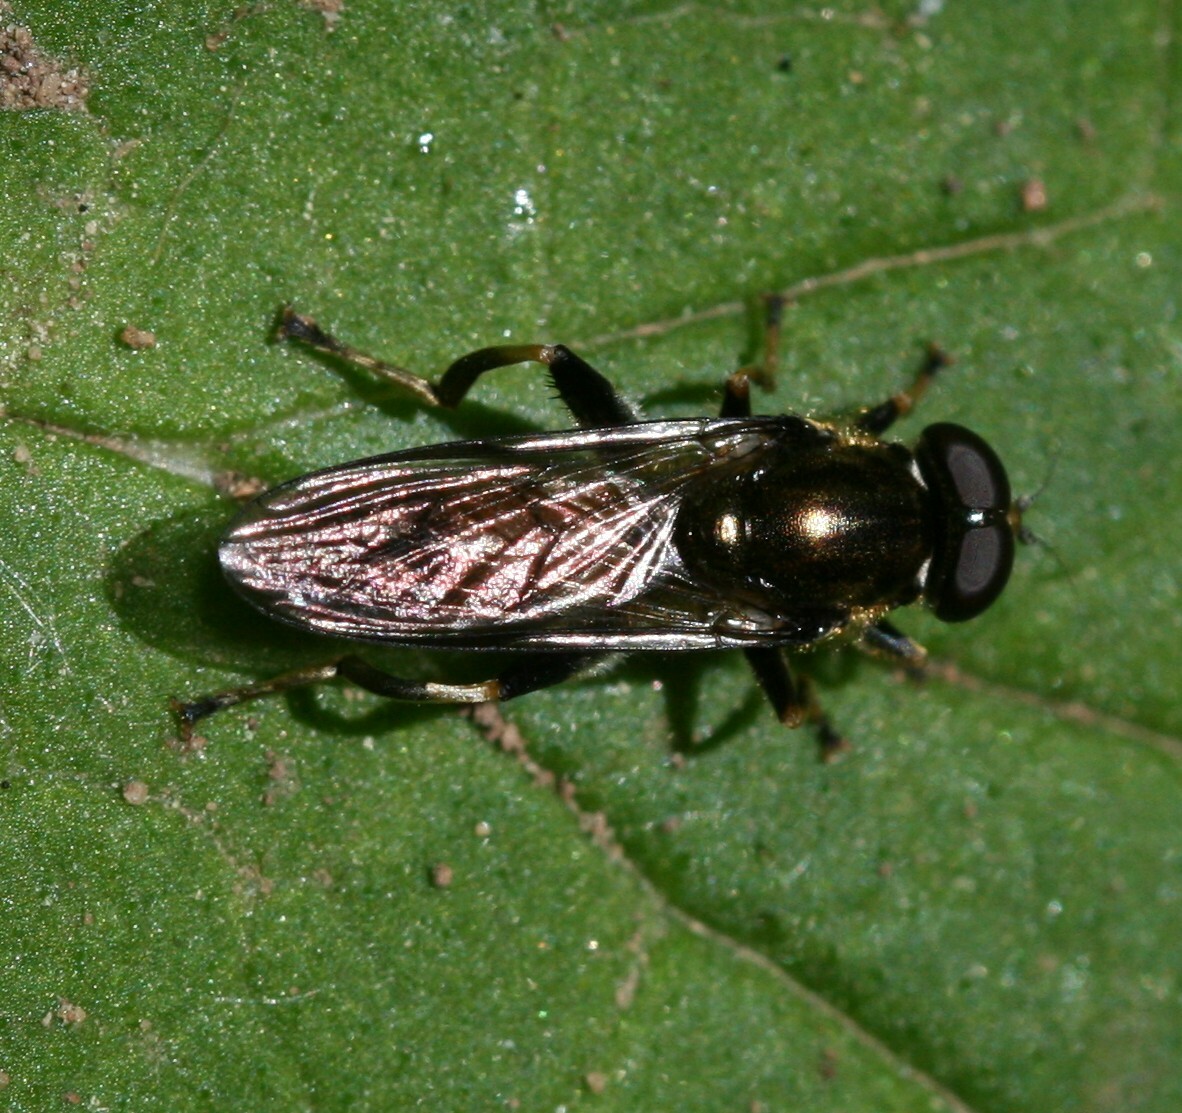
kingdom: Animalia
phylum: Arthropoda
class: Insecta
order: Diptera
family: Syrphidae
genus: Xylota
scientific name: Xylota segnis
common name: Brown-toed forest fly
